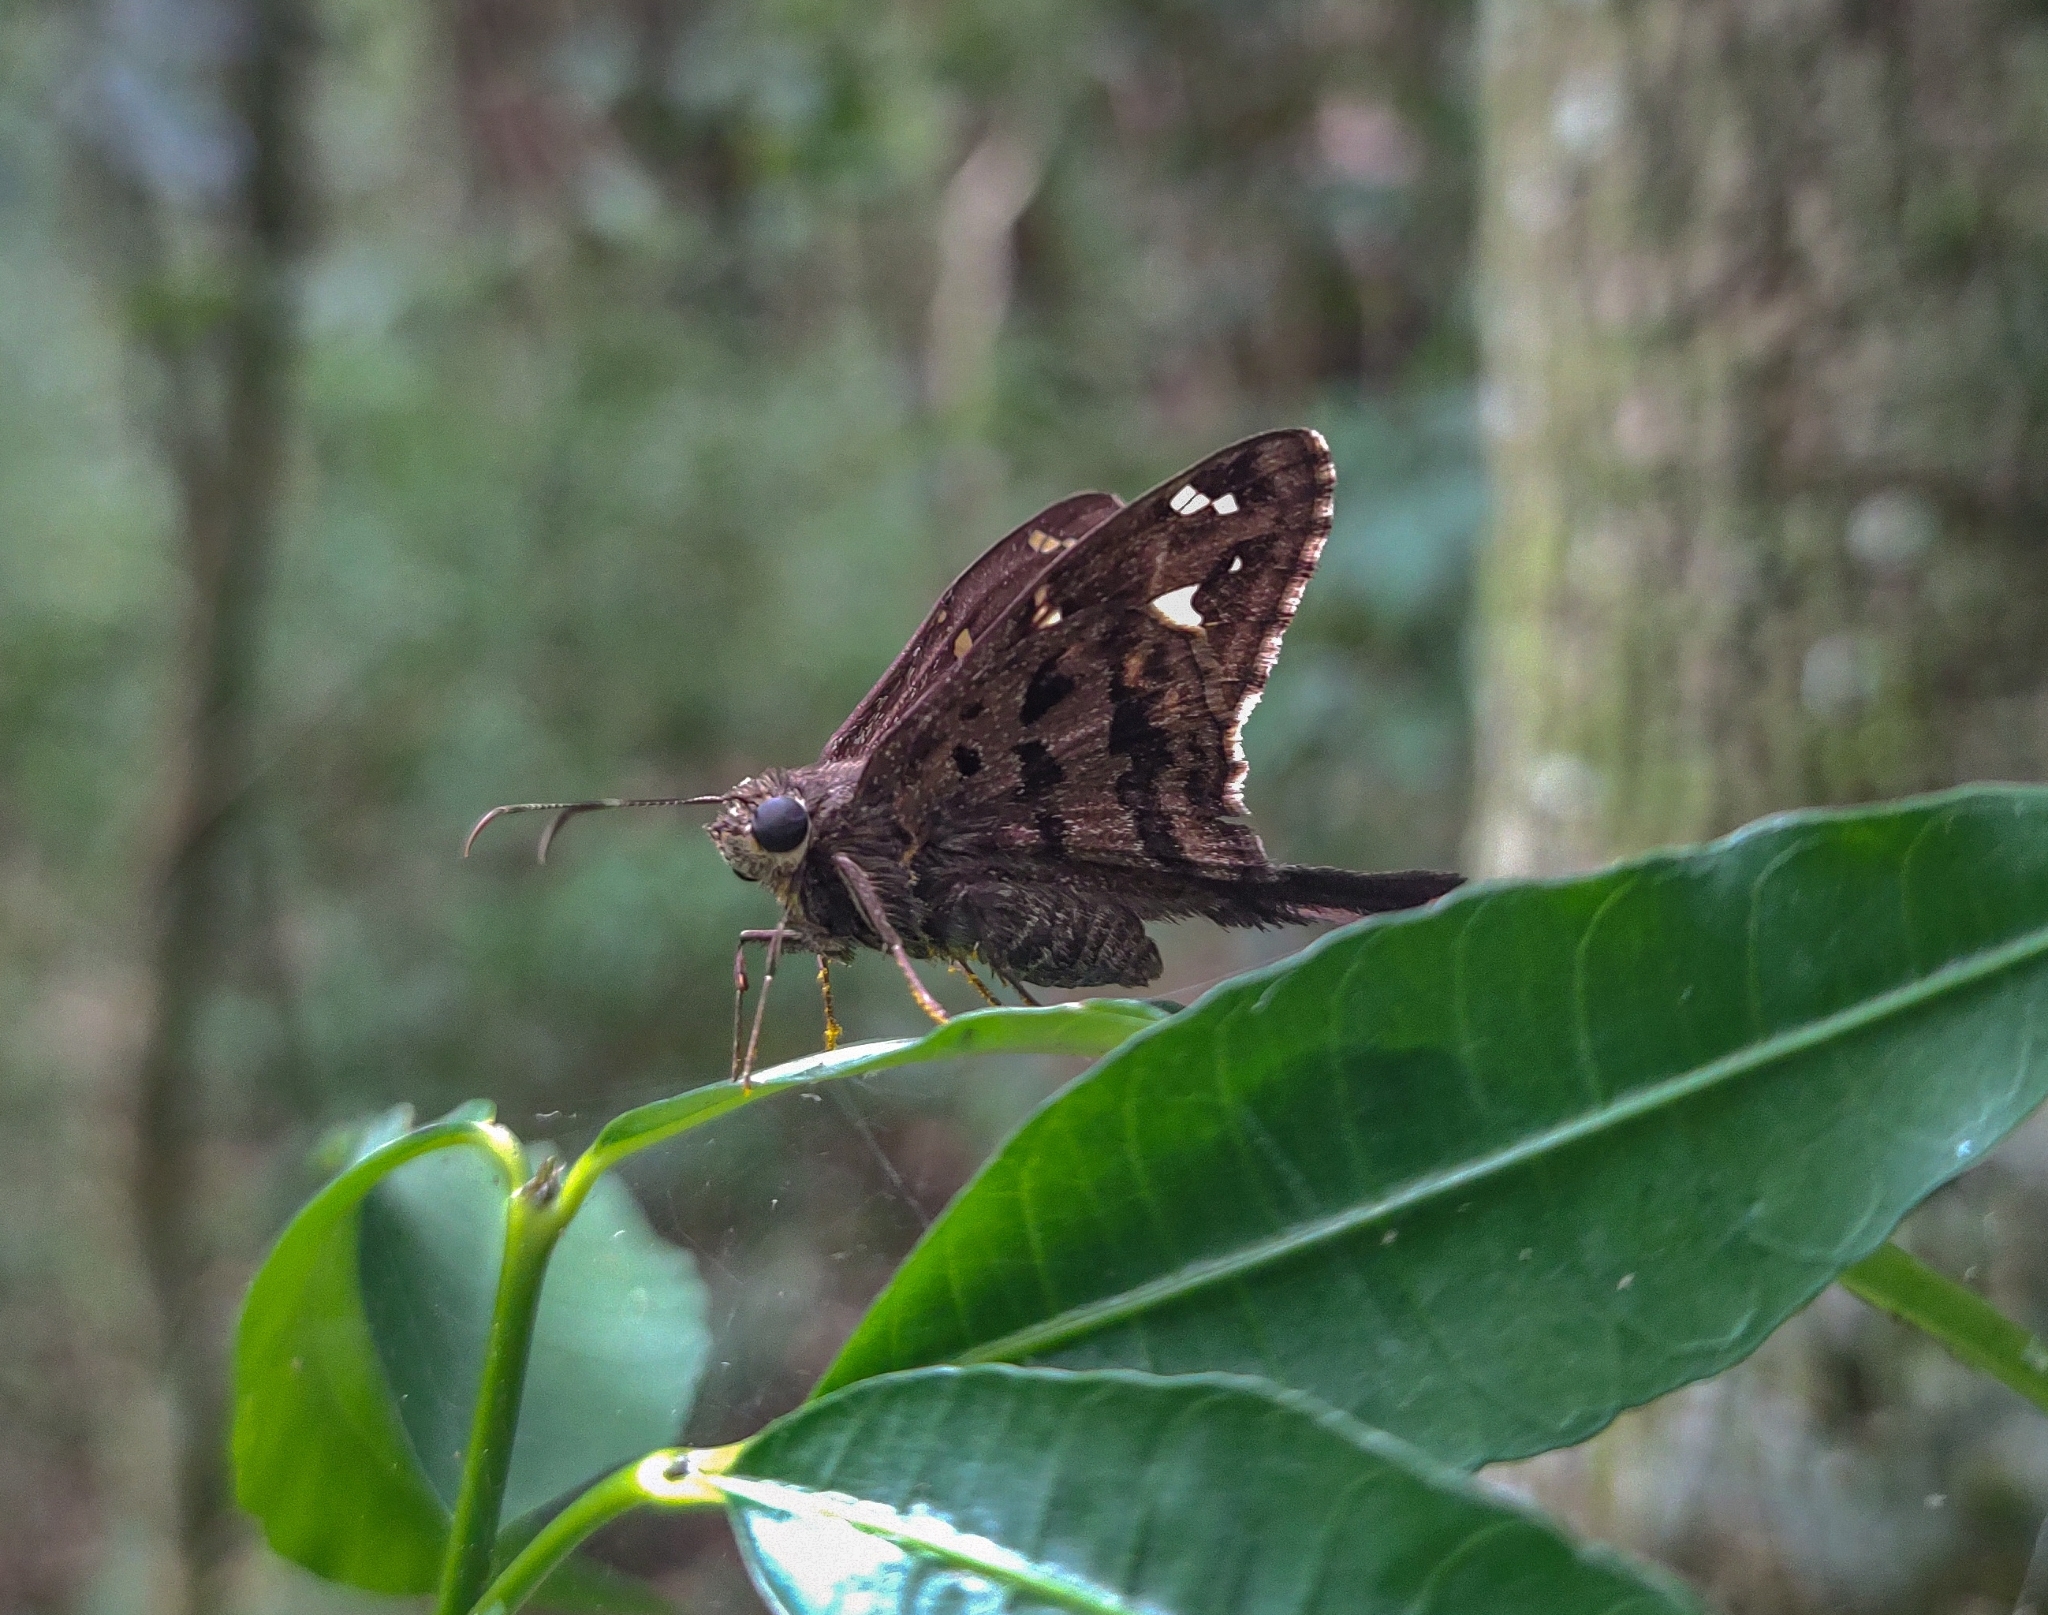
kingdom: Animalia
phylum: Arthropoda
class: Insecta
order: Lepidoptera
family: Hesperiidae
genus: Thorybes
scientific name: Thorybes
